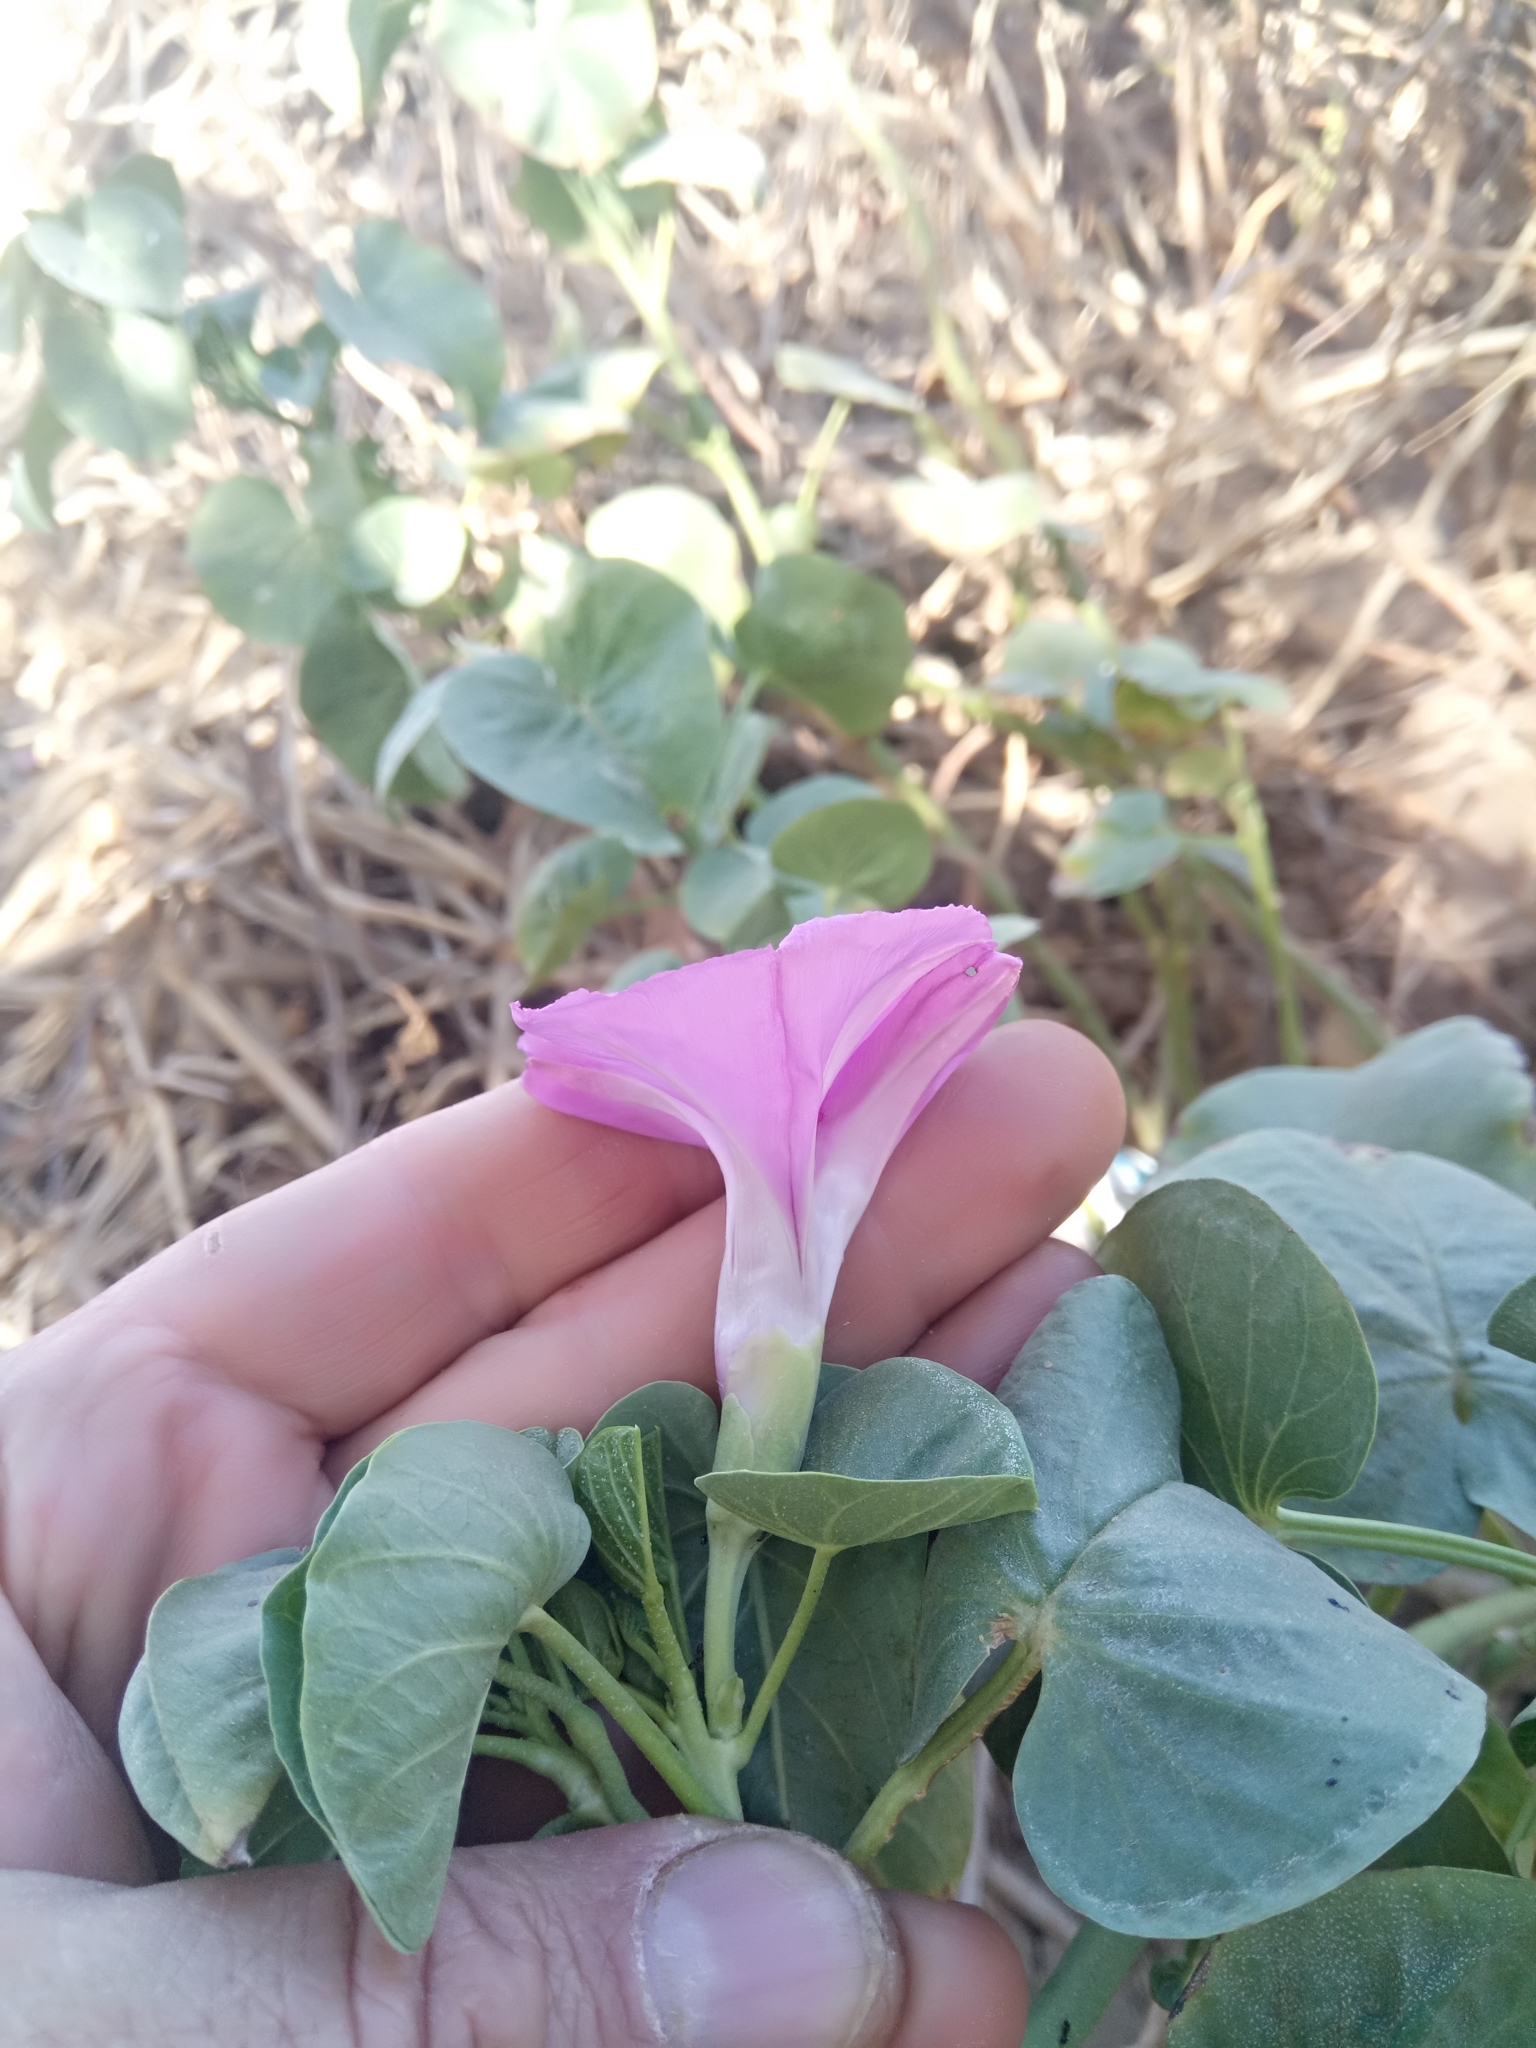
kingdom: Plantae
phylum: Tracheophyta
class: Magnoliopsida
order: Solanales
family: Convolvulaceae
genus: Ipomoea
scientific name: Ipomoea asarifolia
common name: Ginger-leaf morning-glory
